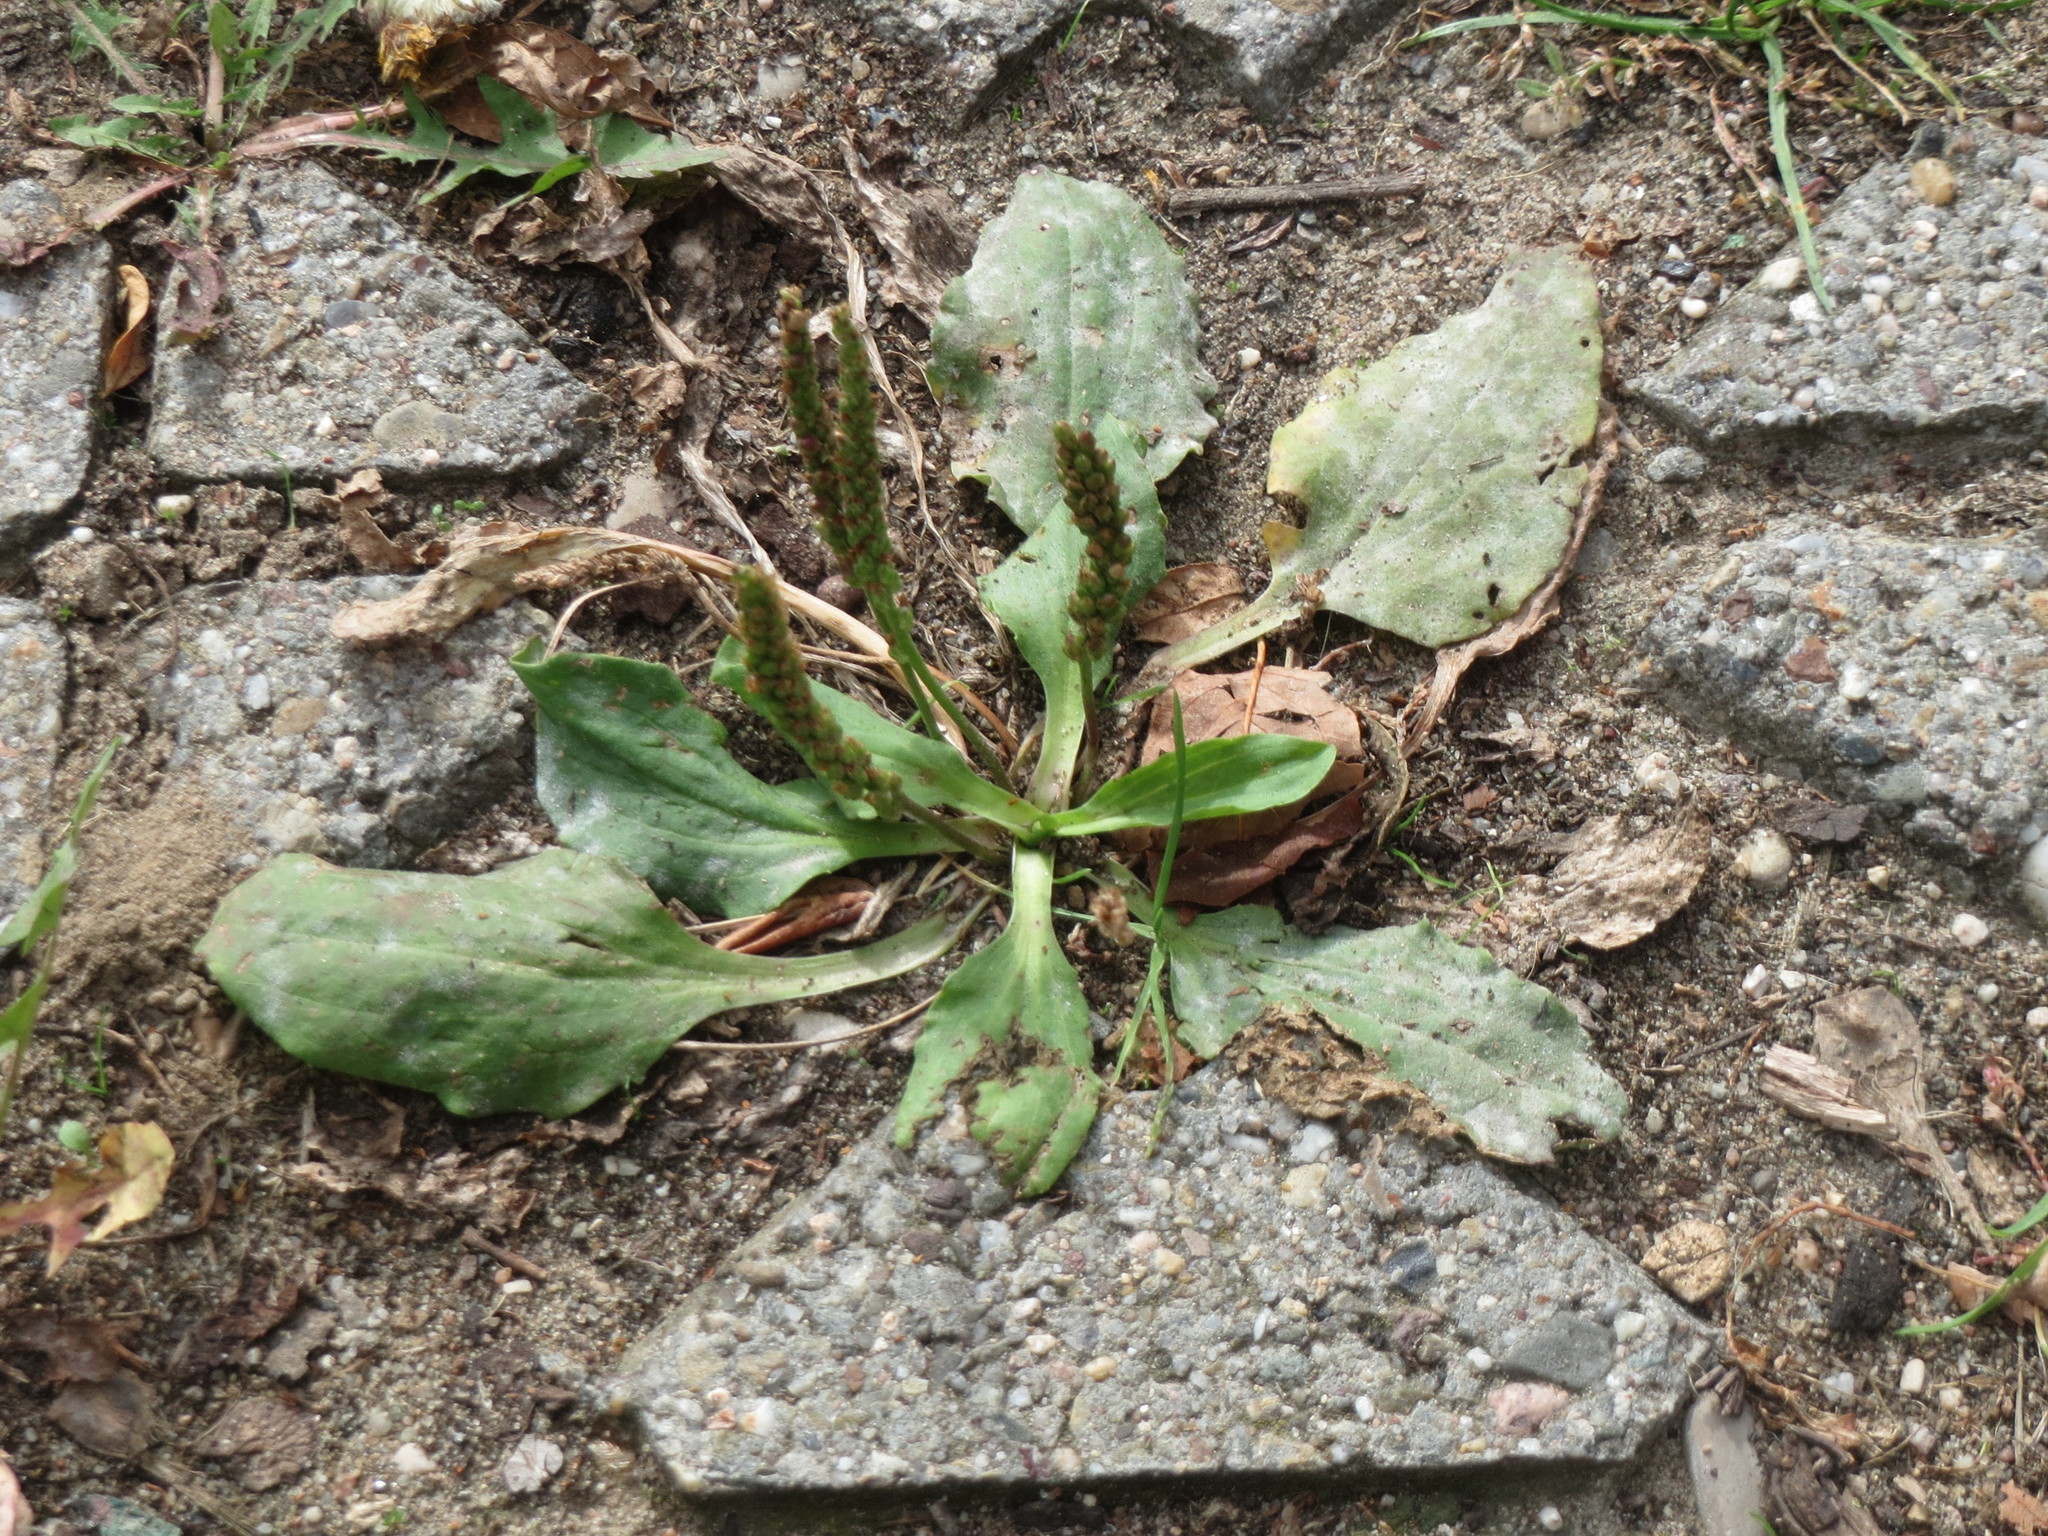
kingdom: Plantae
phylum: Tracheophyta
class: Magnoliopsida
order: Lamiales
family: Plantaginaceae
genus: Plantago
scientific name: Plantago major
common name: Common plantain
